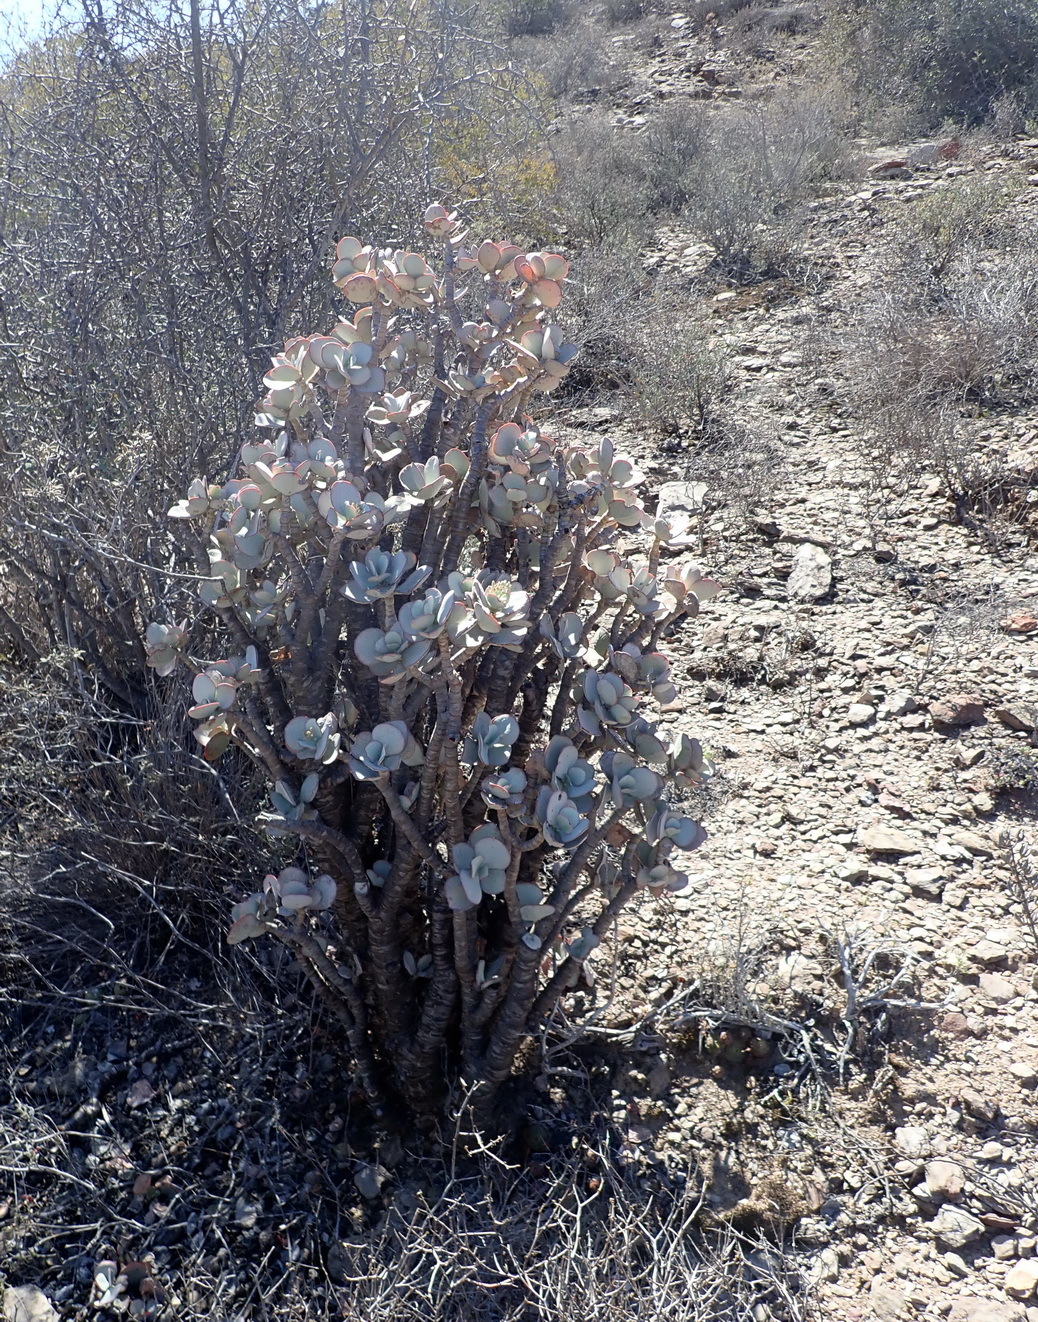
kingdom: Plantae
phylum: Tracheophyta
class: Magnoliopsida
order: Saxifragales
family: Crassulaceae
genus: Crassula
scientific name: Crassula arborescens
